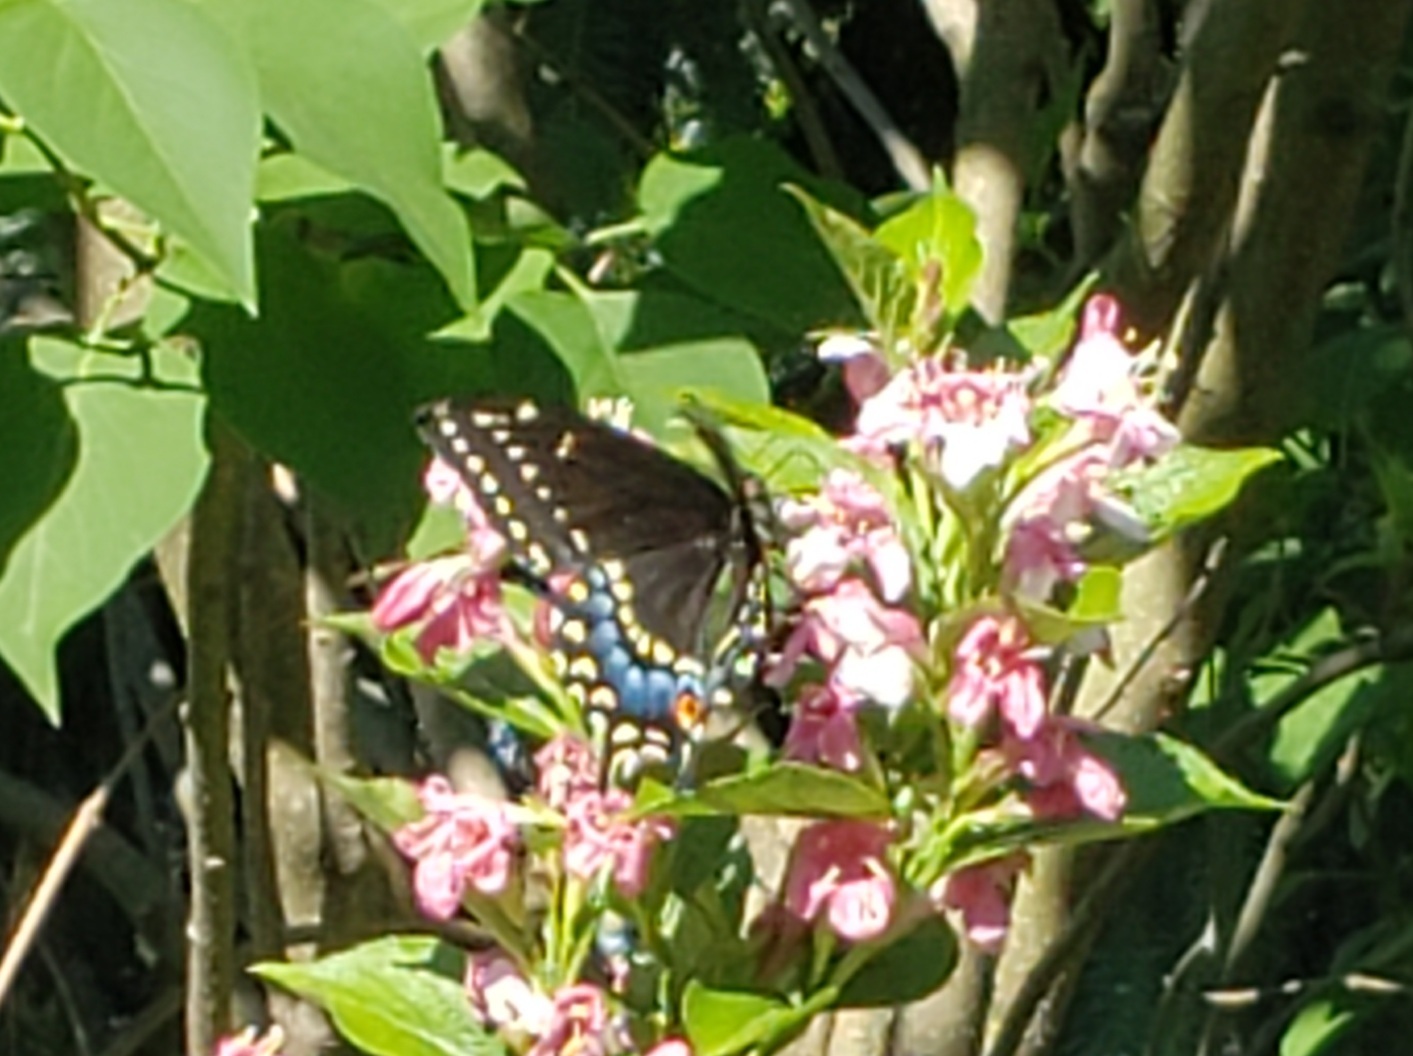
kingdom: Animalia
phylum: Arthropoda
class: Insecta
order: Lepidoptera
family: Papilionidae
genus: Papilio
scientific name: Papilio polyxenes
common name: Black swallowtail
